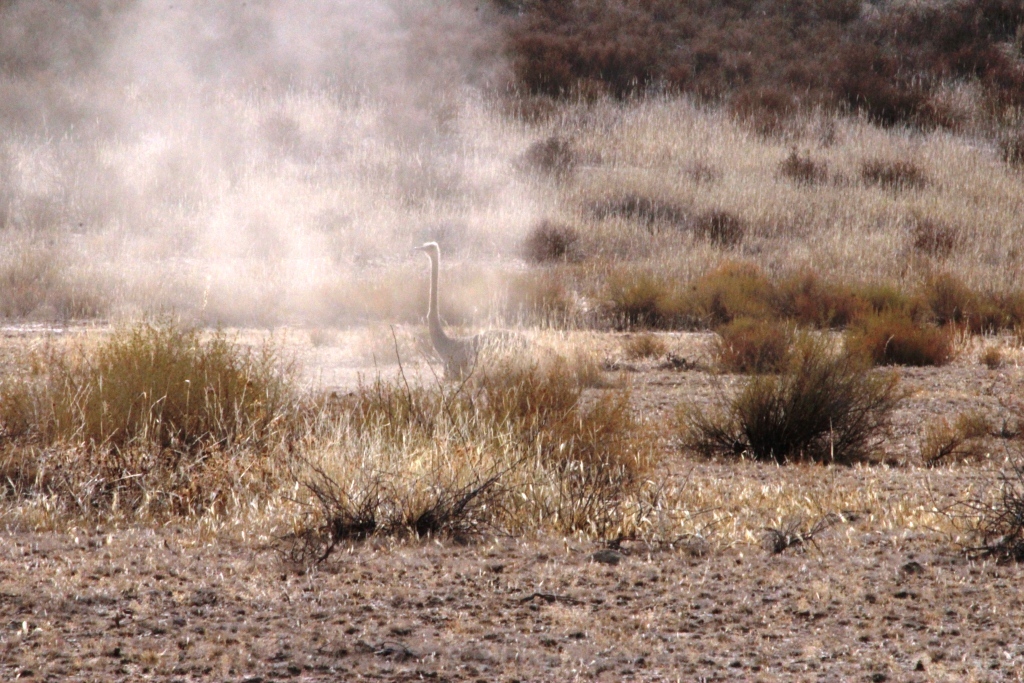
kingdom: Animalia
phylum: Chordata
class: Aves
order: Struthioniformes
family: Struthionidae
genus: Struthio
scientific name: Struthio camelus
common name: Common ostrich
